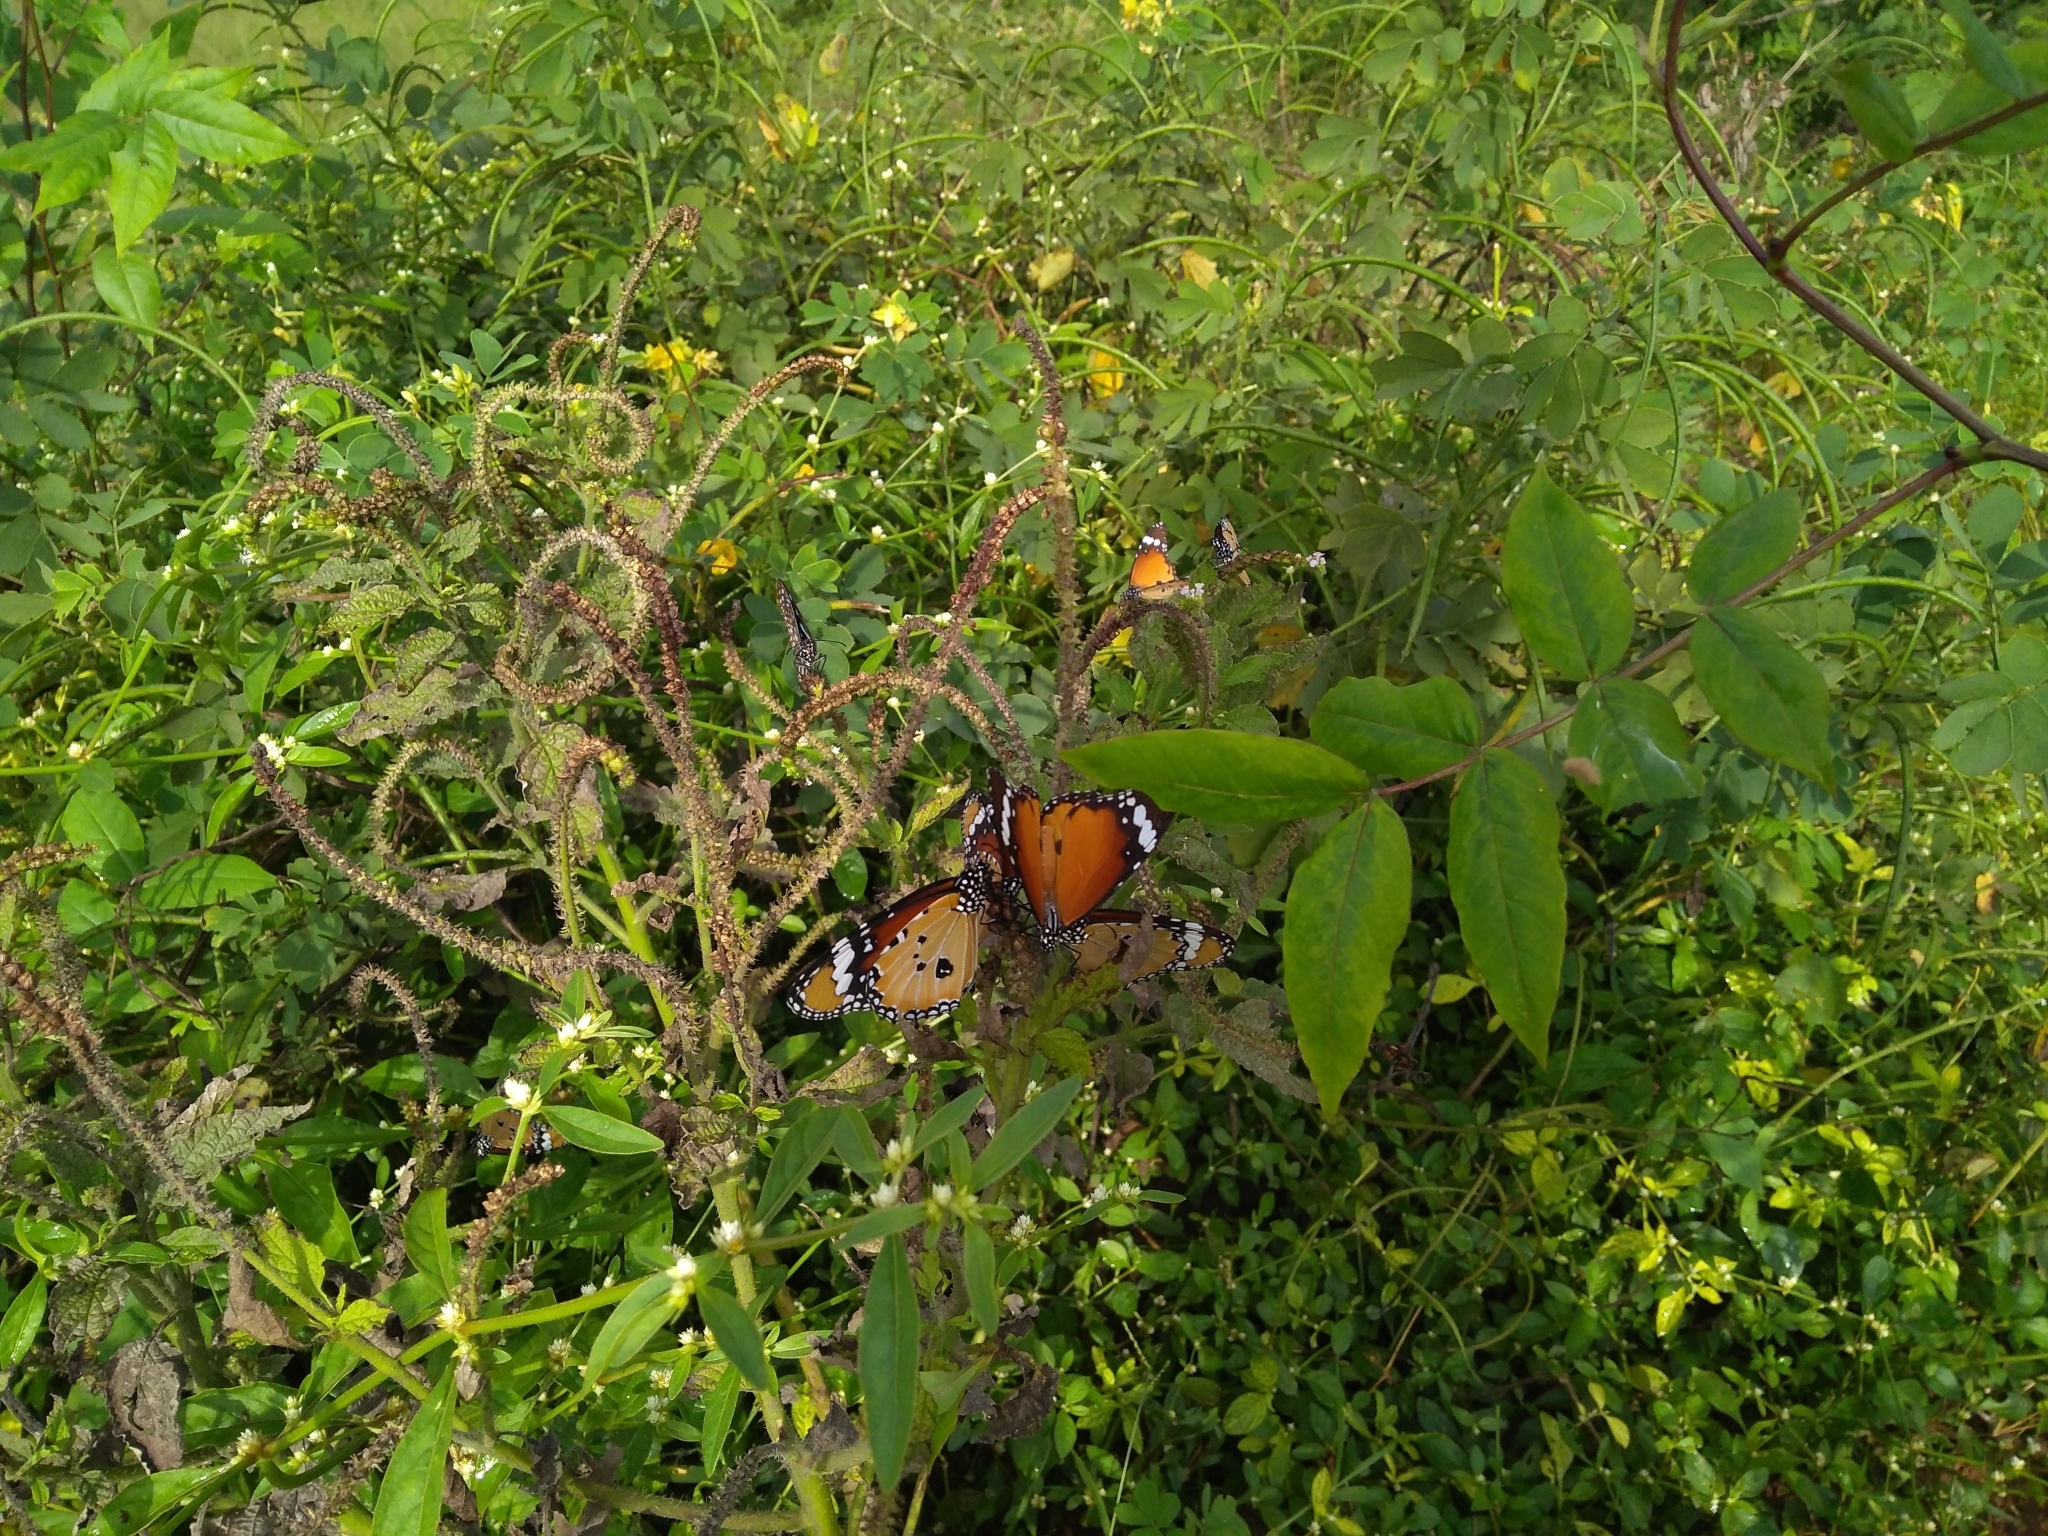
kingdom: Animalia
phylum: Arthropoda
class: Insecta
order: Lepidoptera
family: Nymphalidae
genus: Danaus
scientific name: Danaus chrysippus
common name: Plain tiger
